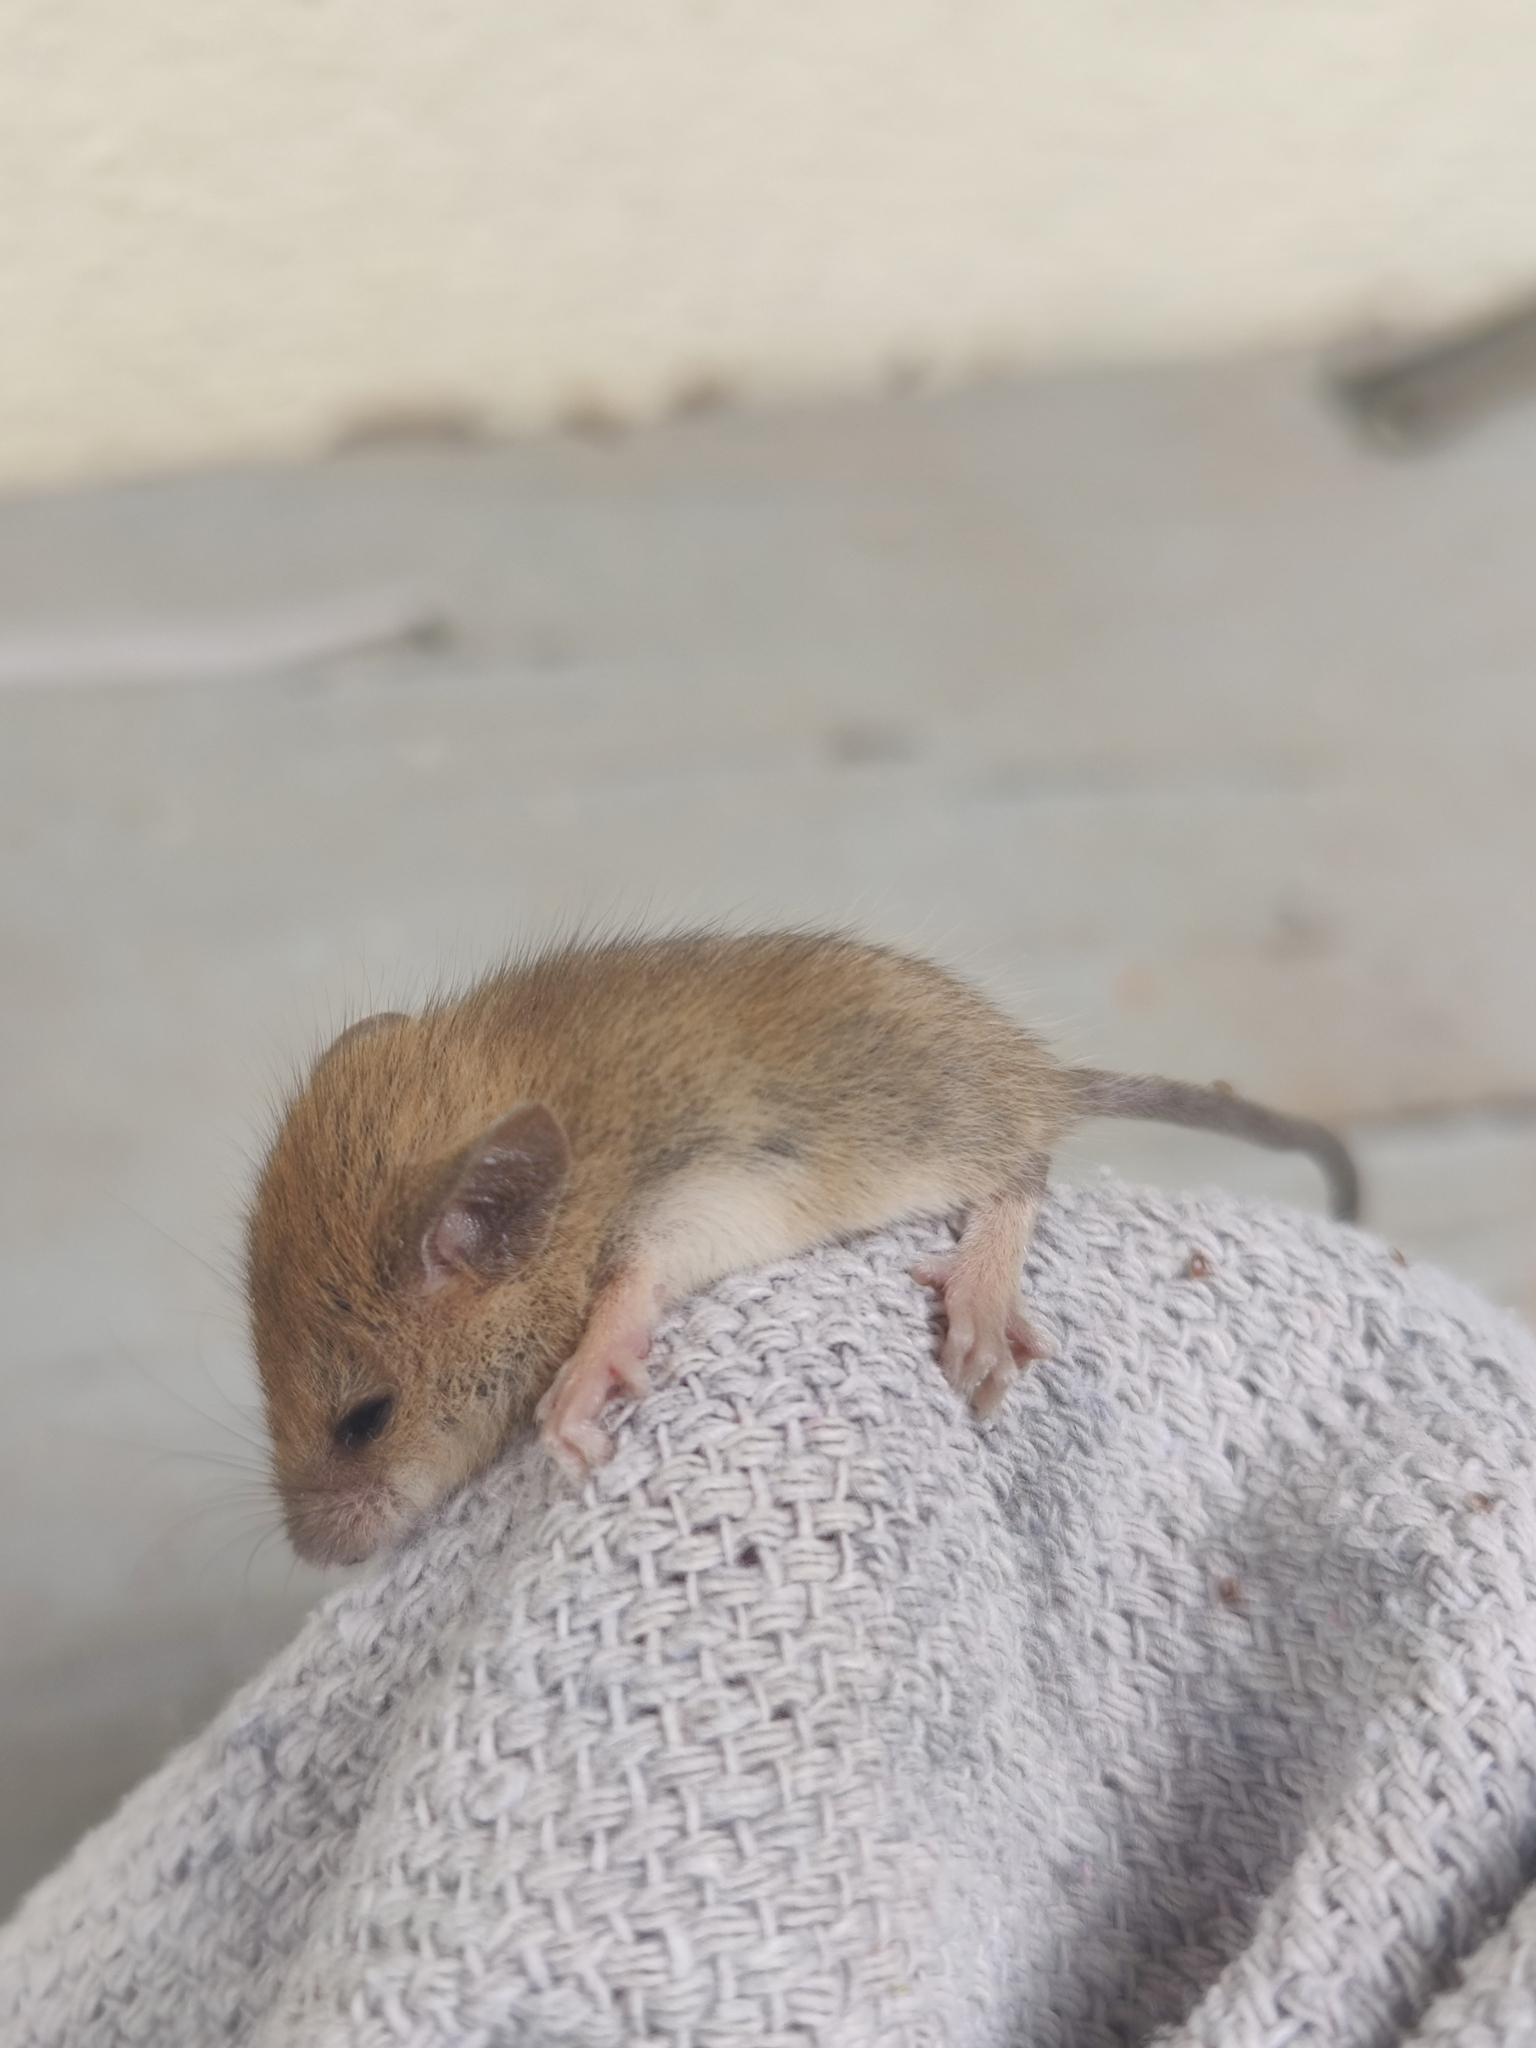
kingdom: Animalia
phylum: Chordata
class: Mammalia
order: Rodentia
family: Muridae
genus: Vandeleuria
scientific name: Vandeleuria oleracea
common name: Indomalayan vandeleuria
